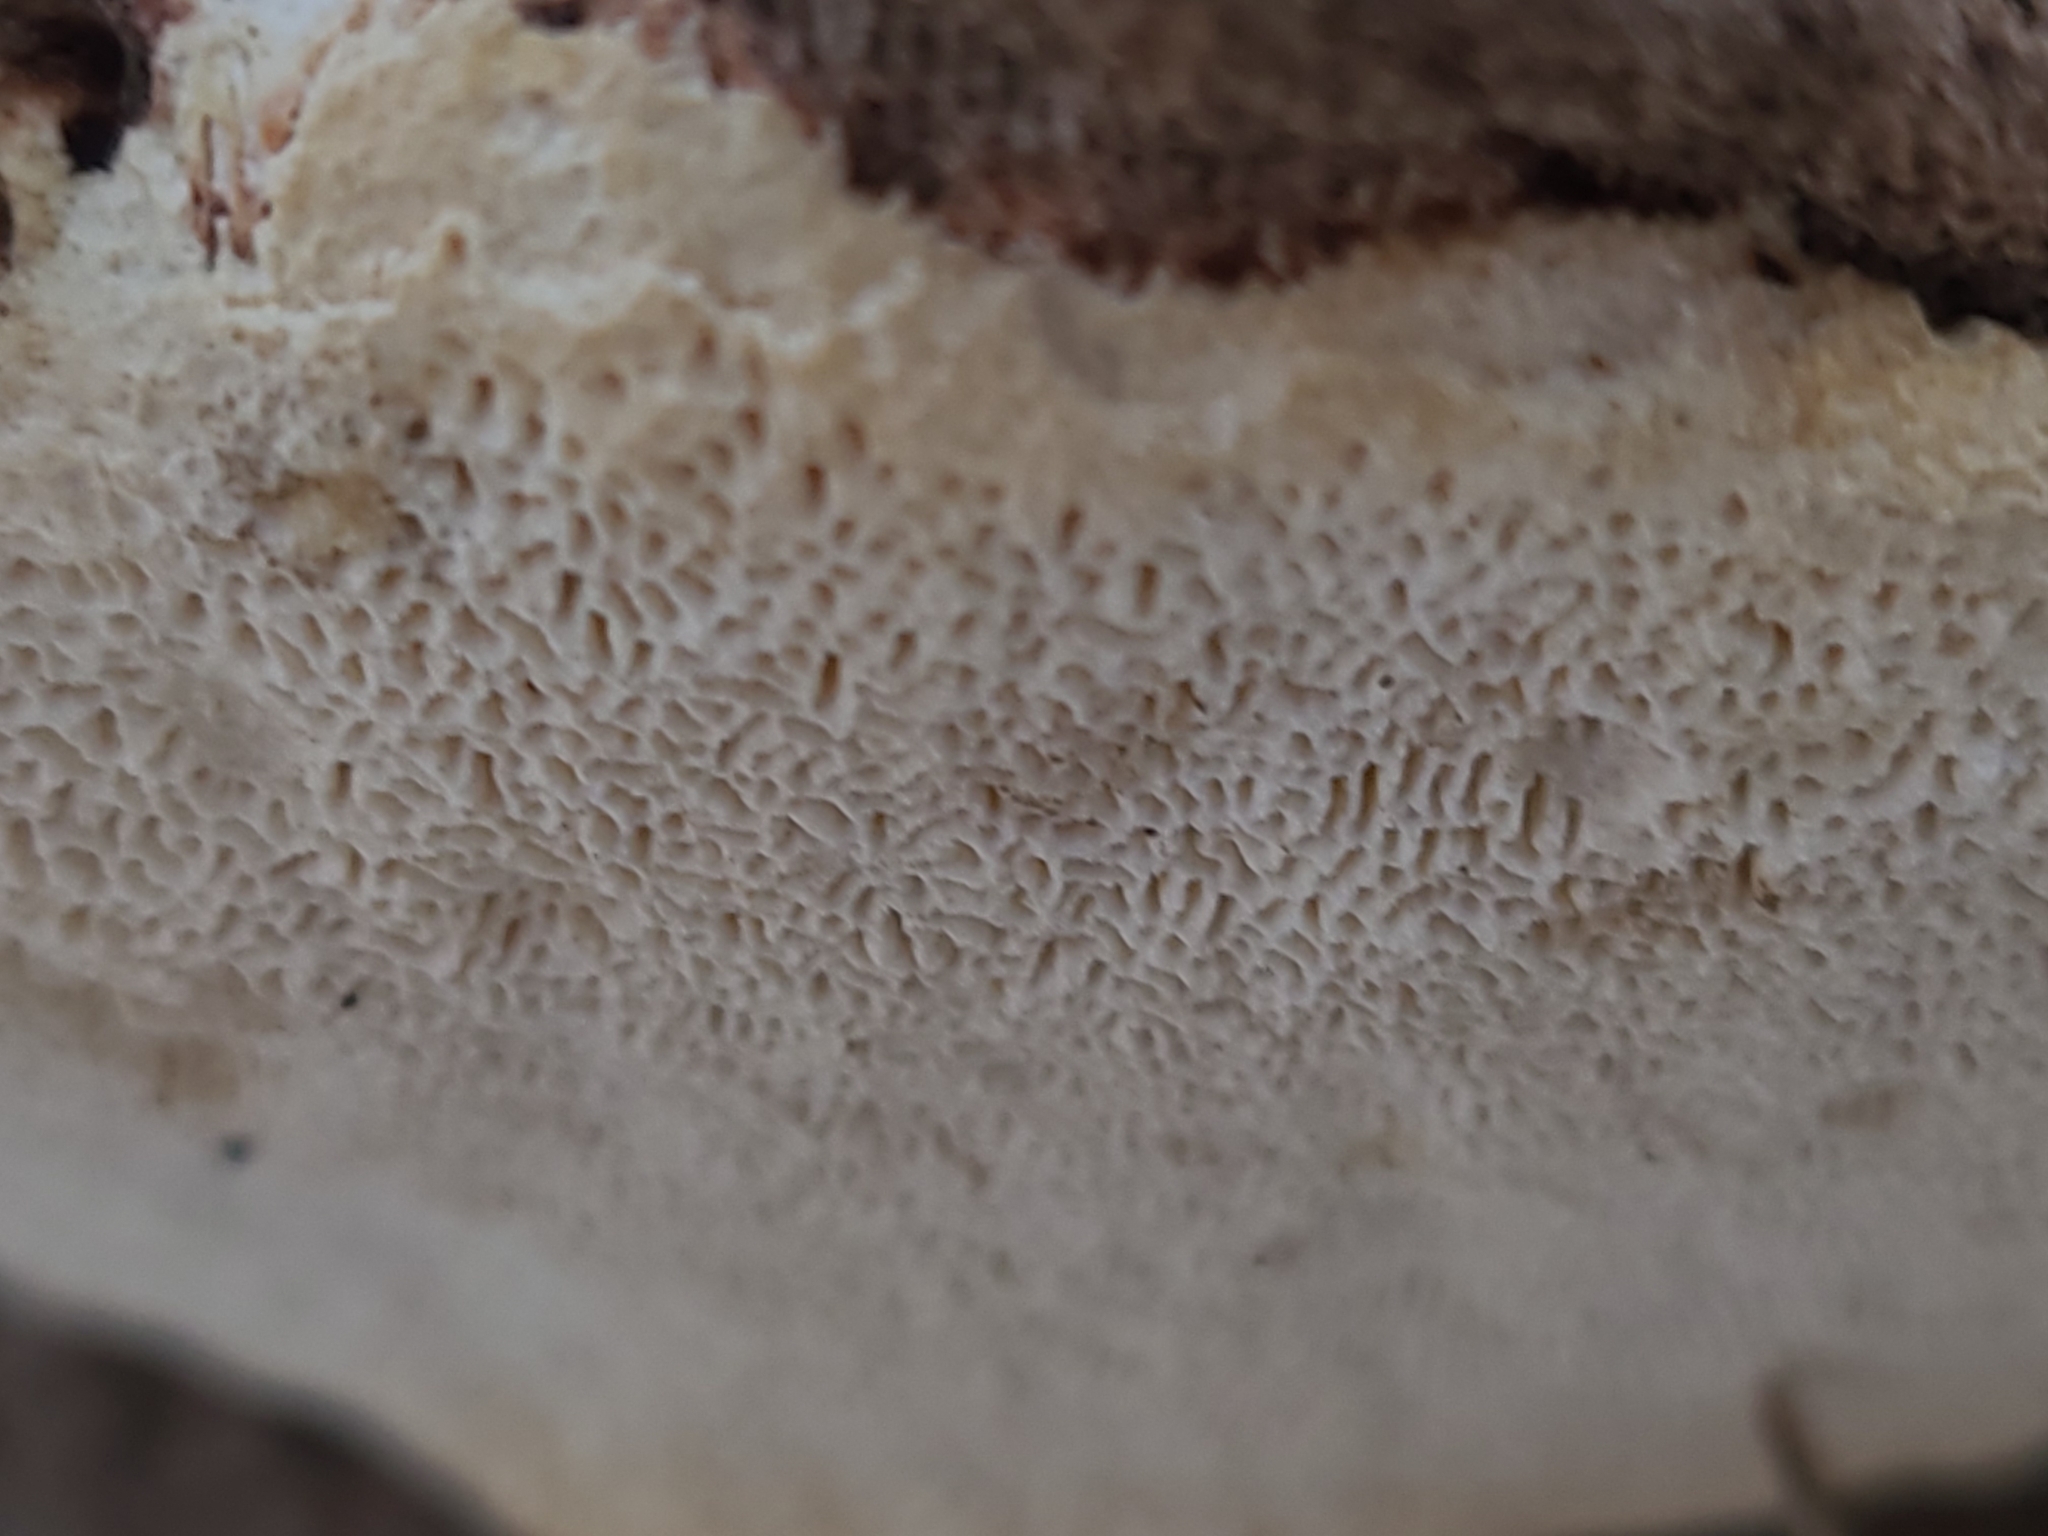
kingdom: Fungi
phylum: Basidiomycota
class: Agaricomycetes
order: Polyporales
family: Polyporaceae
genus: Trametes
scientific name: Trametes gibbosa
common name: Lumpy bracket
